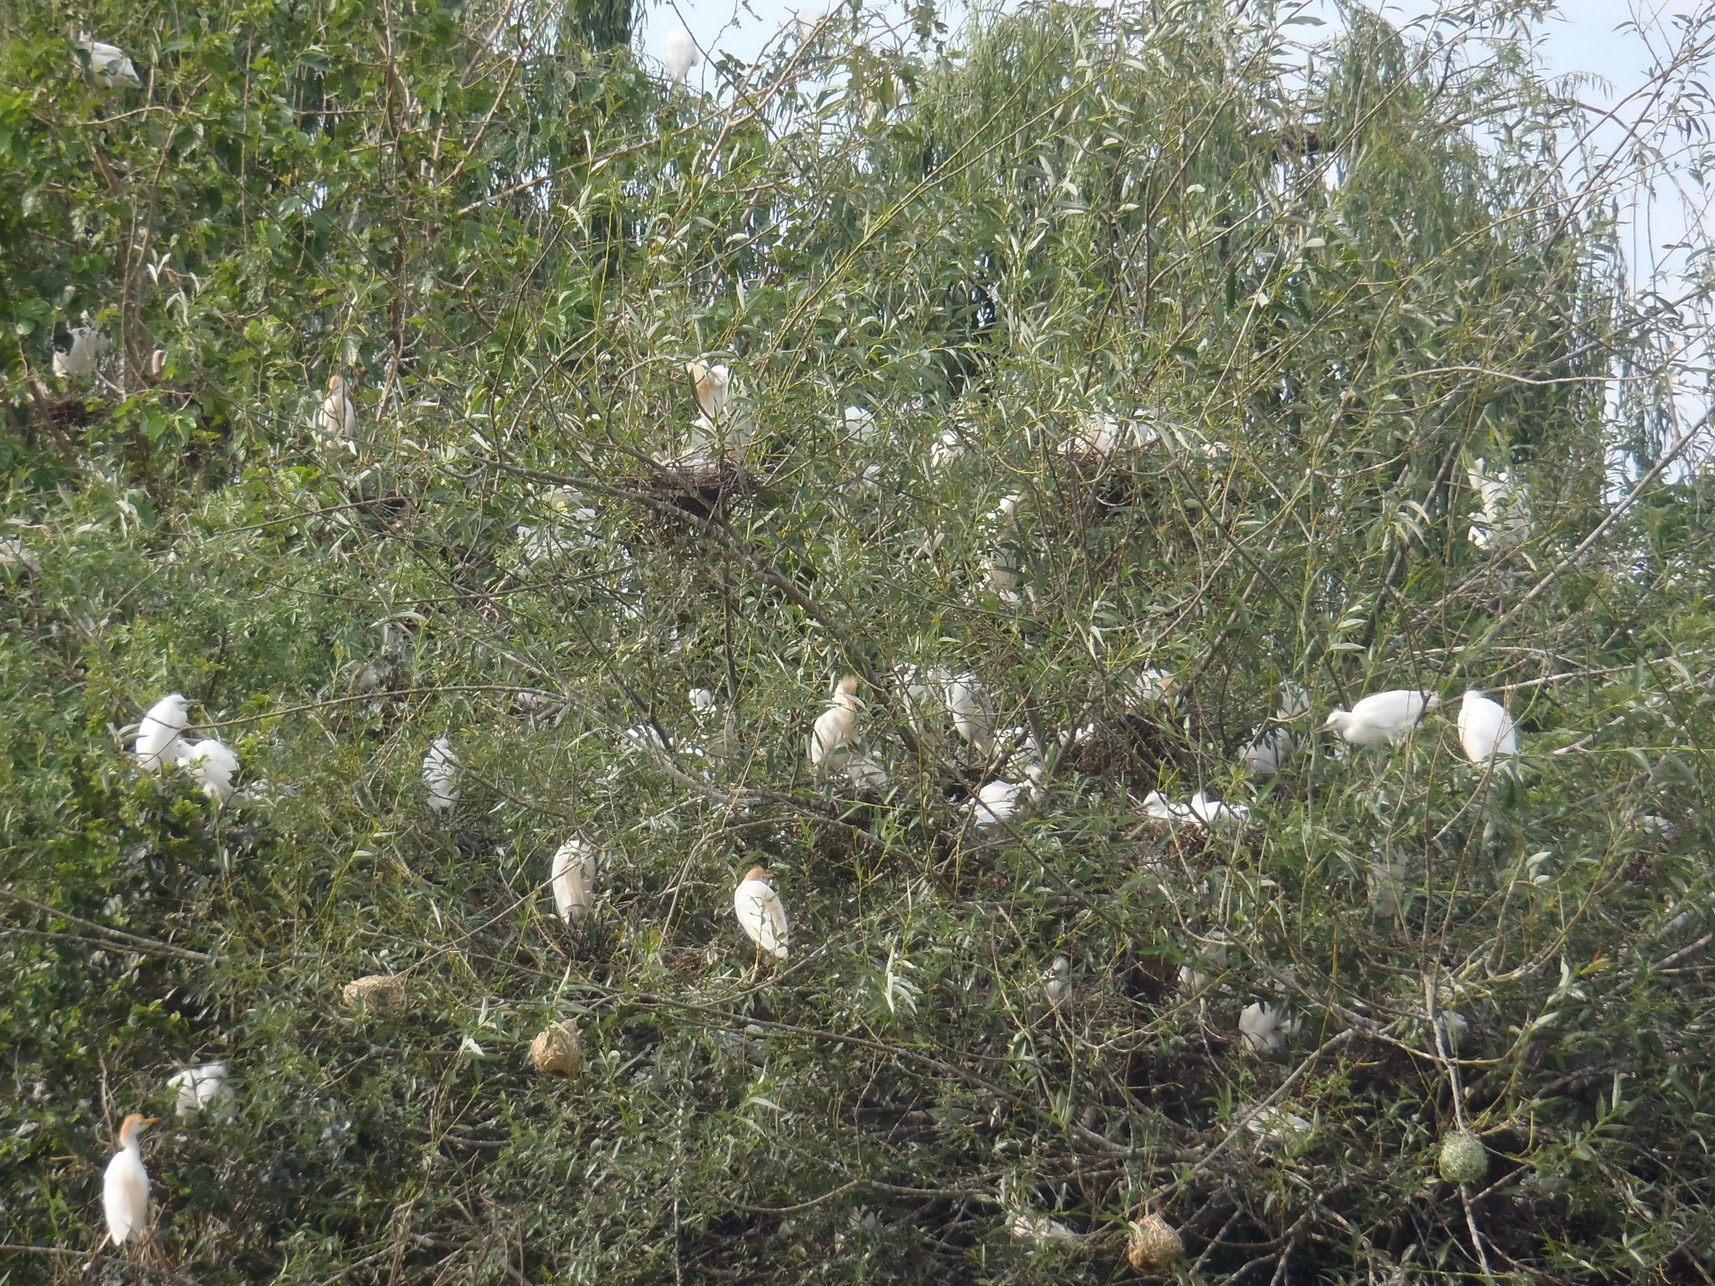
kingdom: Animalia
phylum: Chordata
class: Aves
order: Pelecaniformes
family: Ardeidae
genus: Bubulcus
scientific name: Bubulcus ibis
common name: Cattle egret
